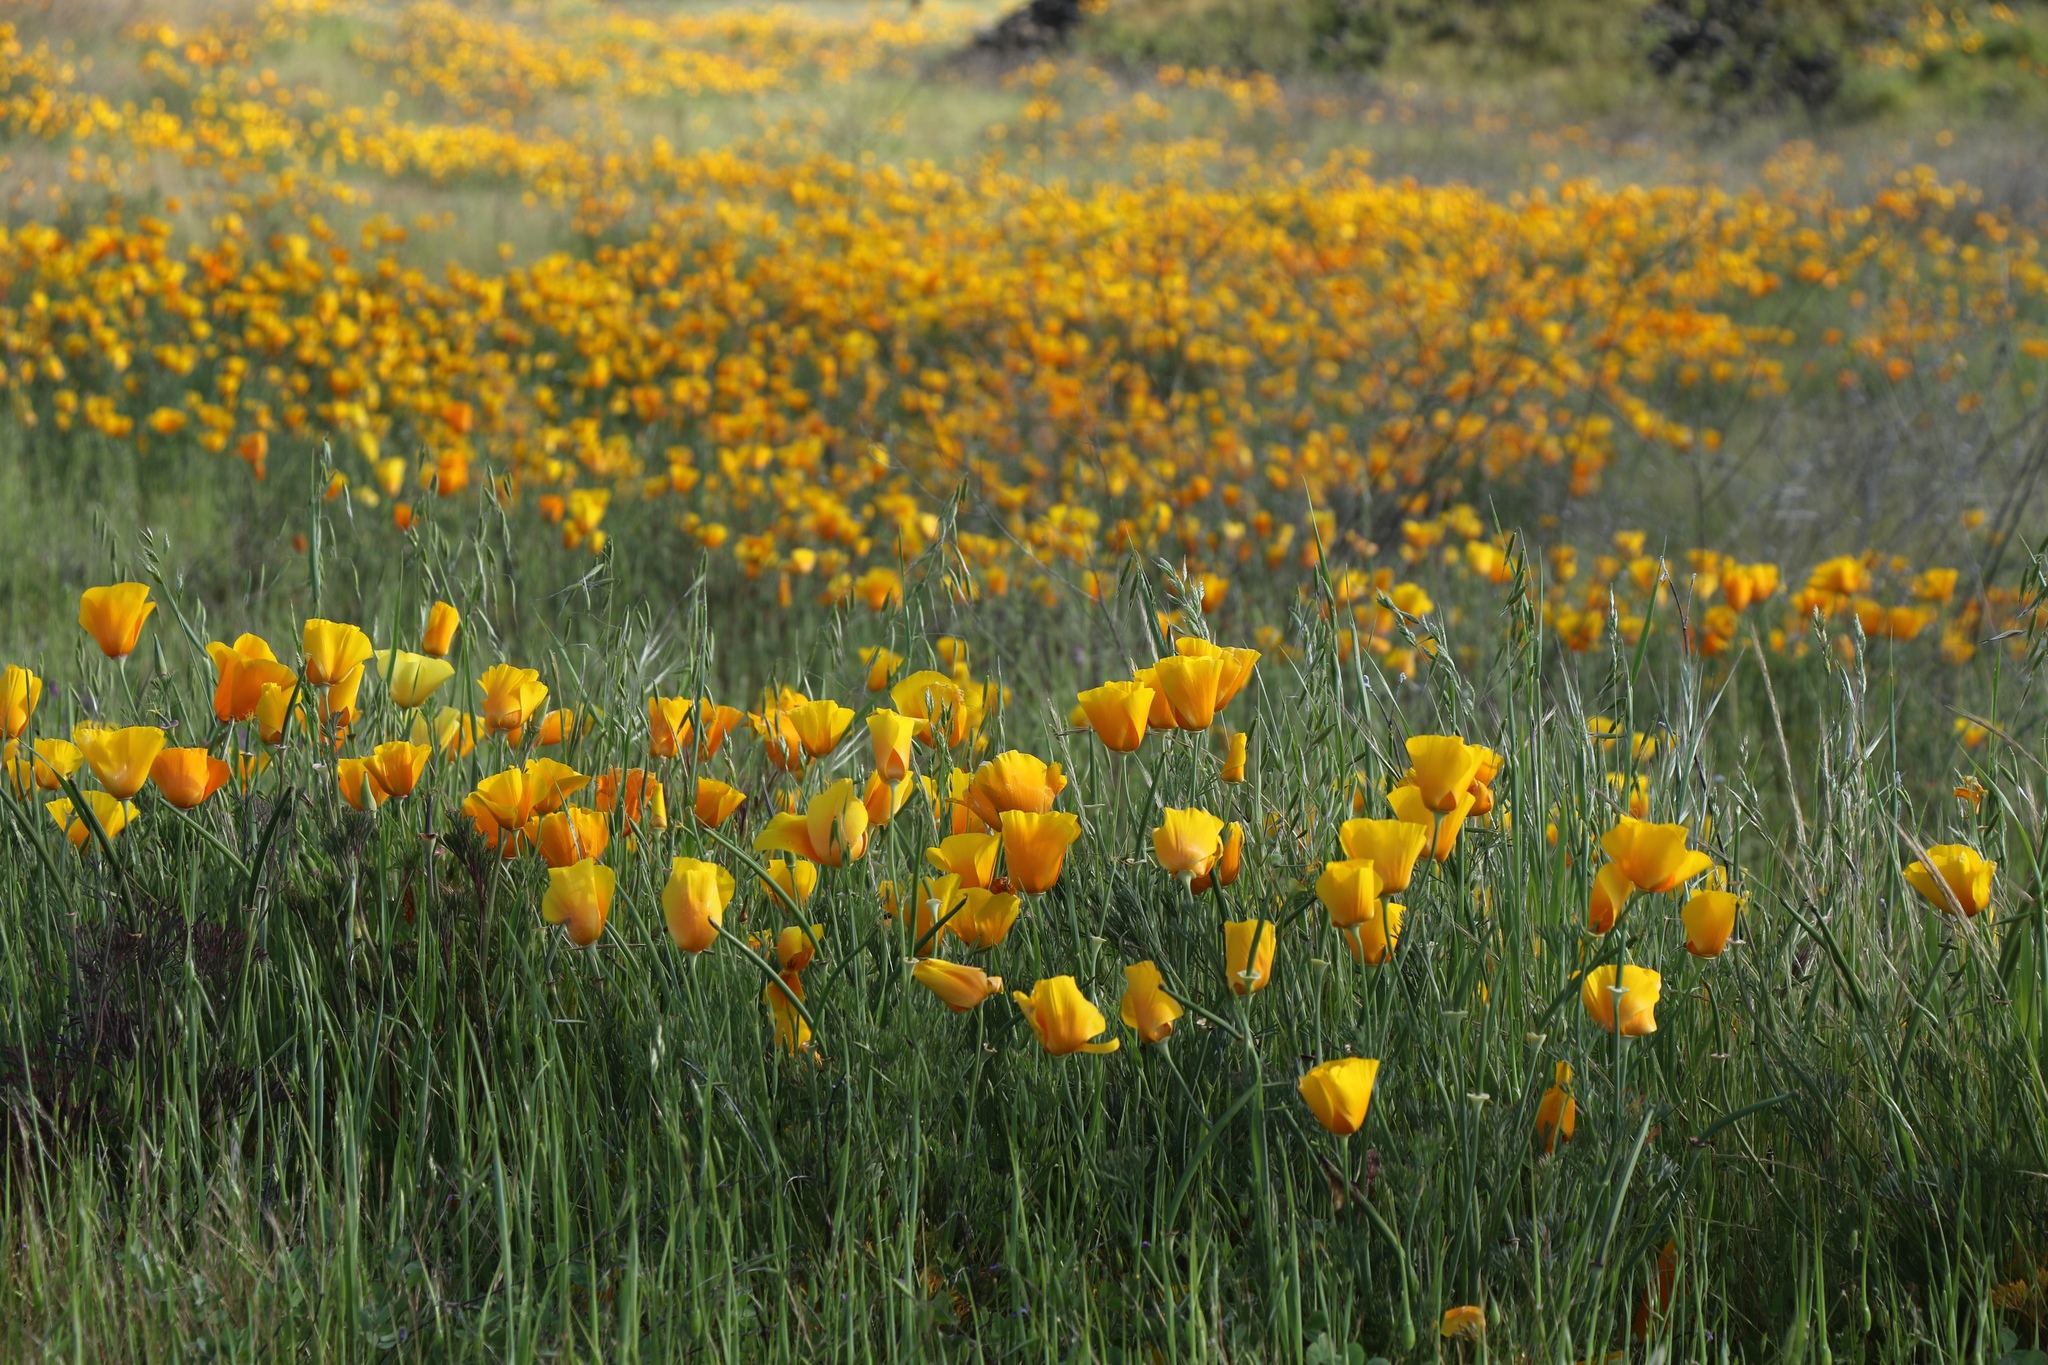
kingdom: Plantae
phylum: Tracheophyta
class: Magnoliopsida
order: Ranunculales
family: Papaveraceae
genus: Eschscholzia
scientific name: Eschscholzia californica
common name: California poppy
